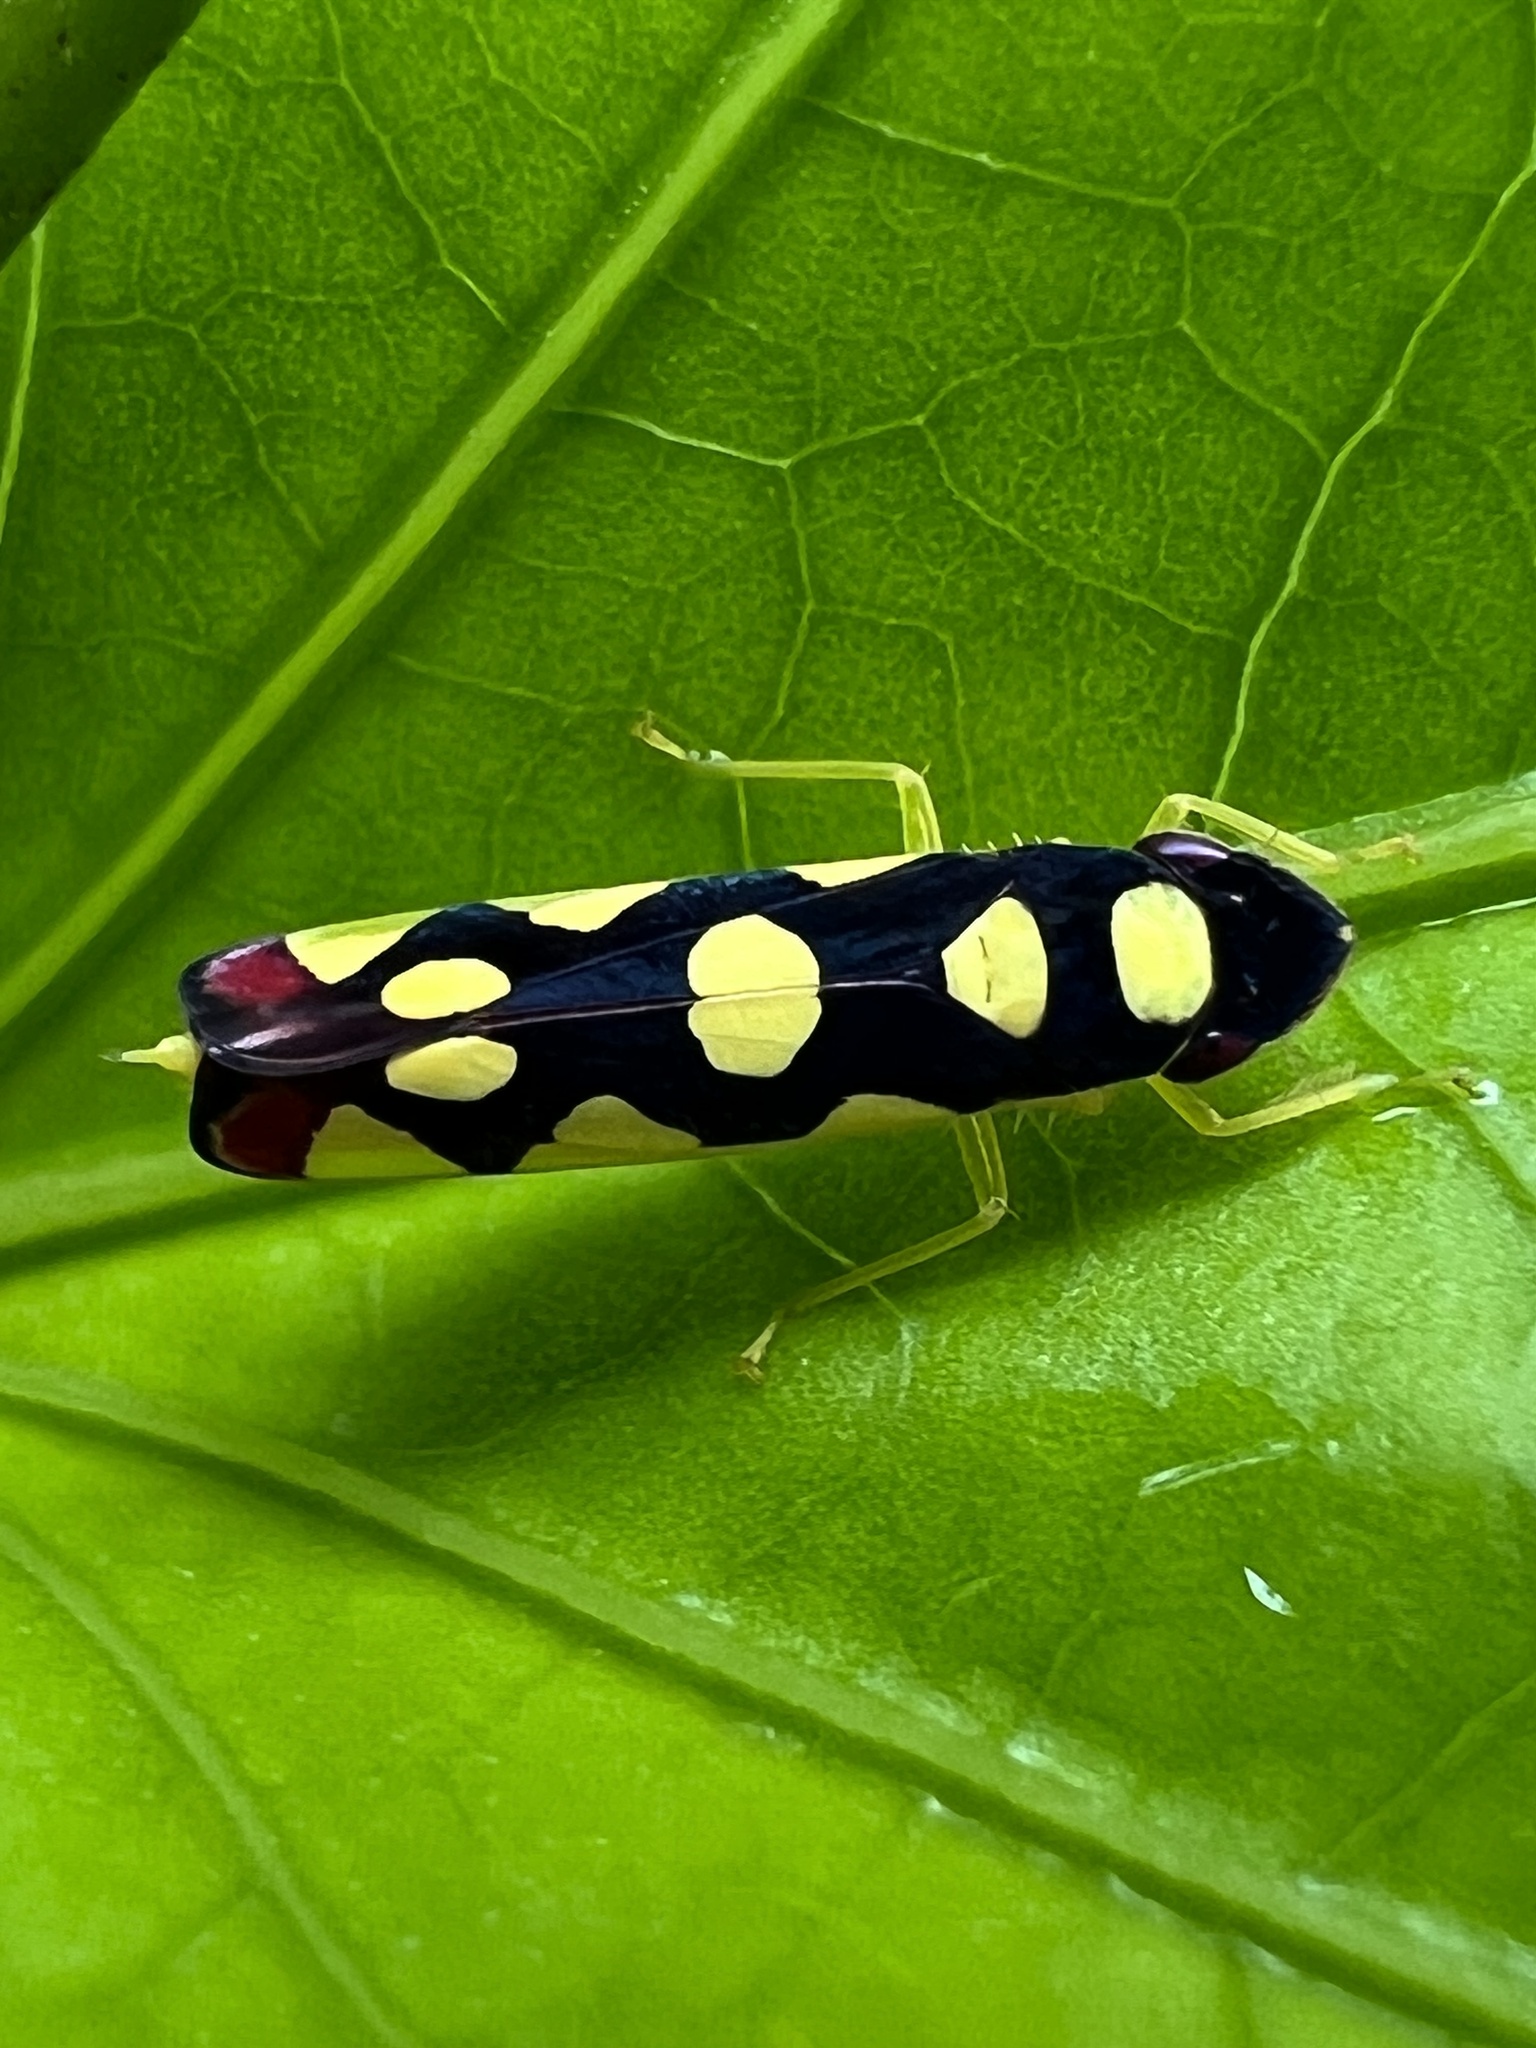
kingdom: Animalia
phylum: Arthropoda
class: Insecta
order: Hemiptera
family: Cicadellidae
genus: Baleja
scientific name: Baleja flavoguttata
